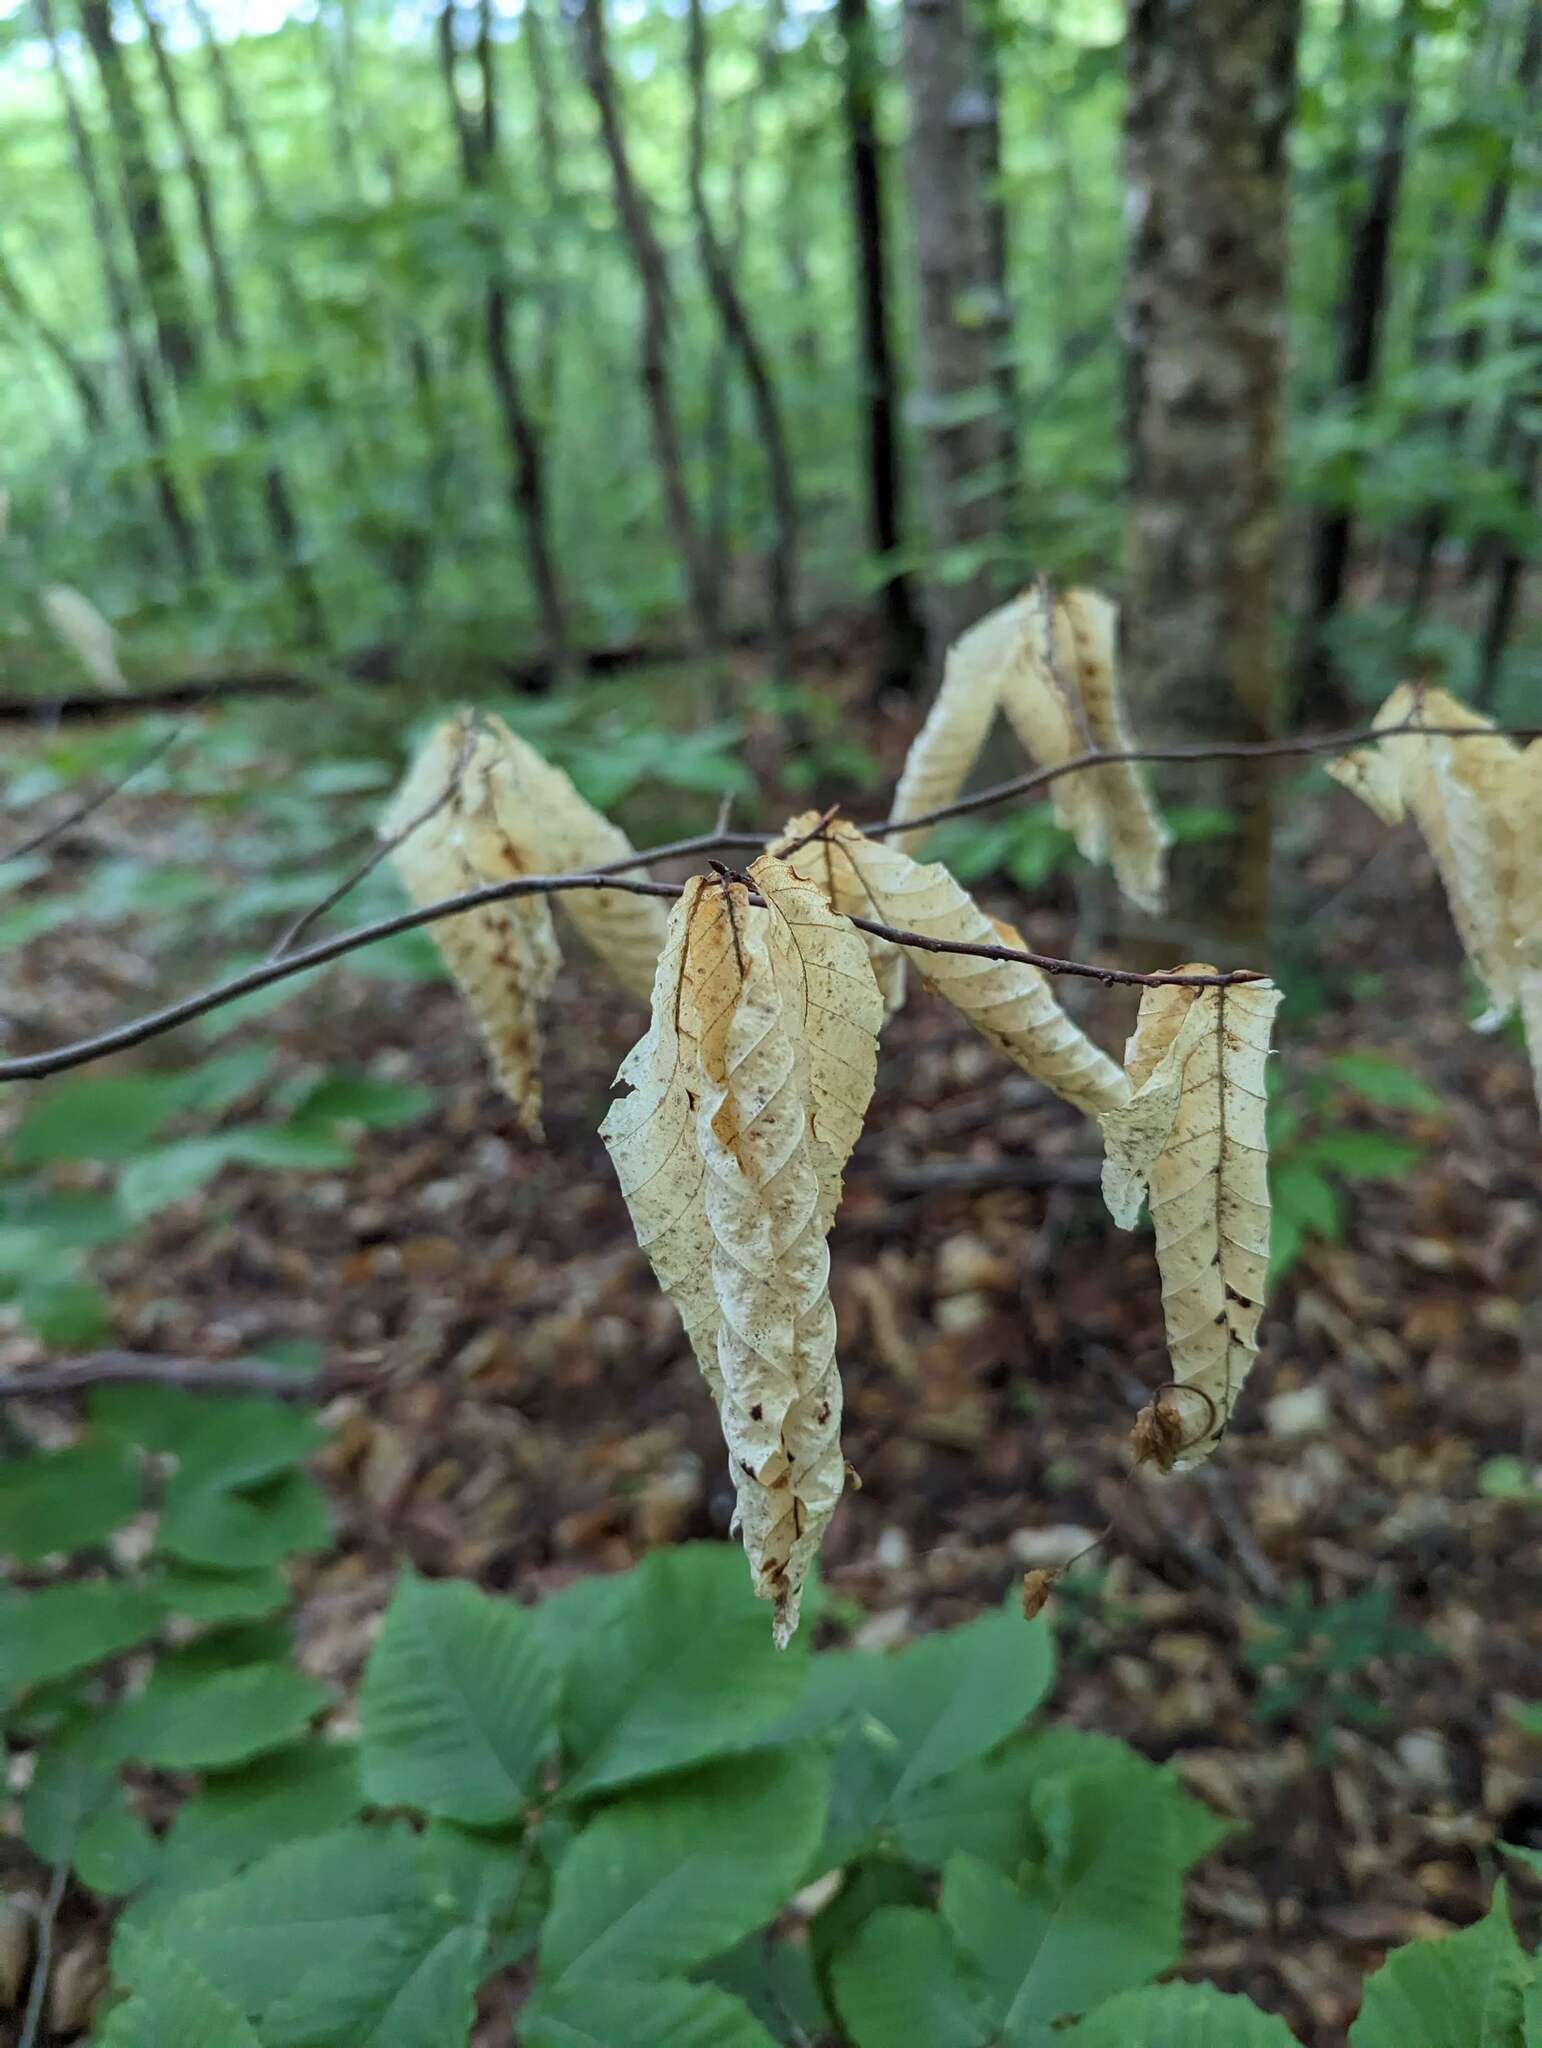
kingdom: Plantae
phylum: Tracheophyta
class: Magnoliopsida
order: Fagales
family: Fagaceae
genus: Fagus
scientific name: Fagus grandifolia
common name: American beech
